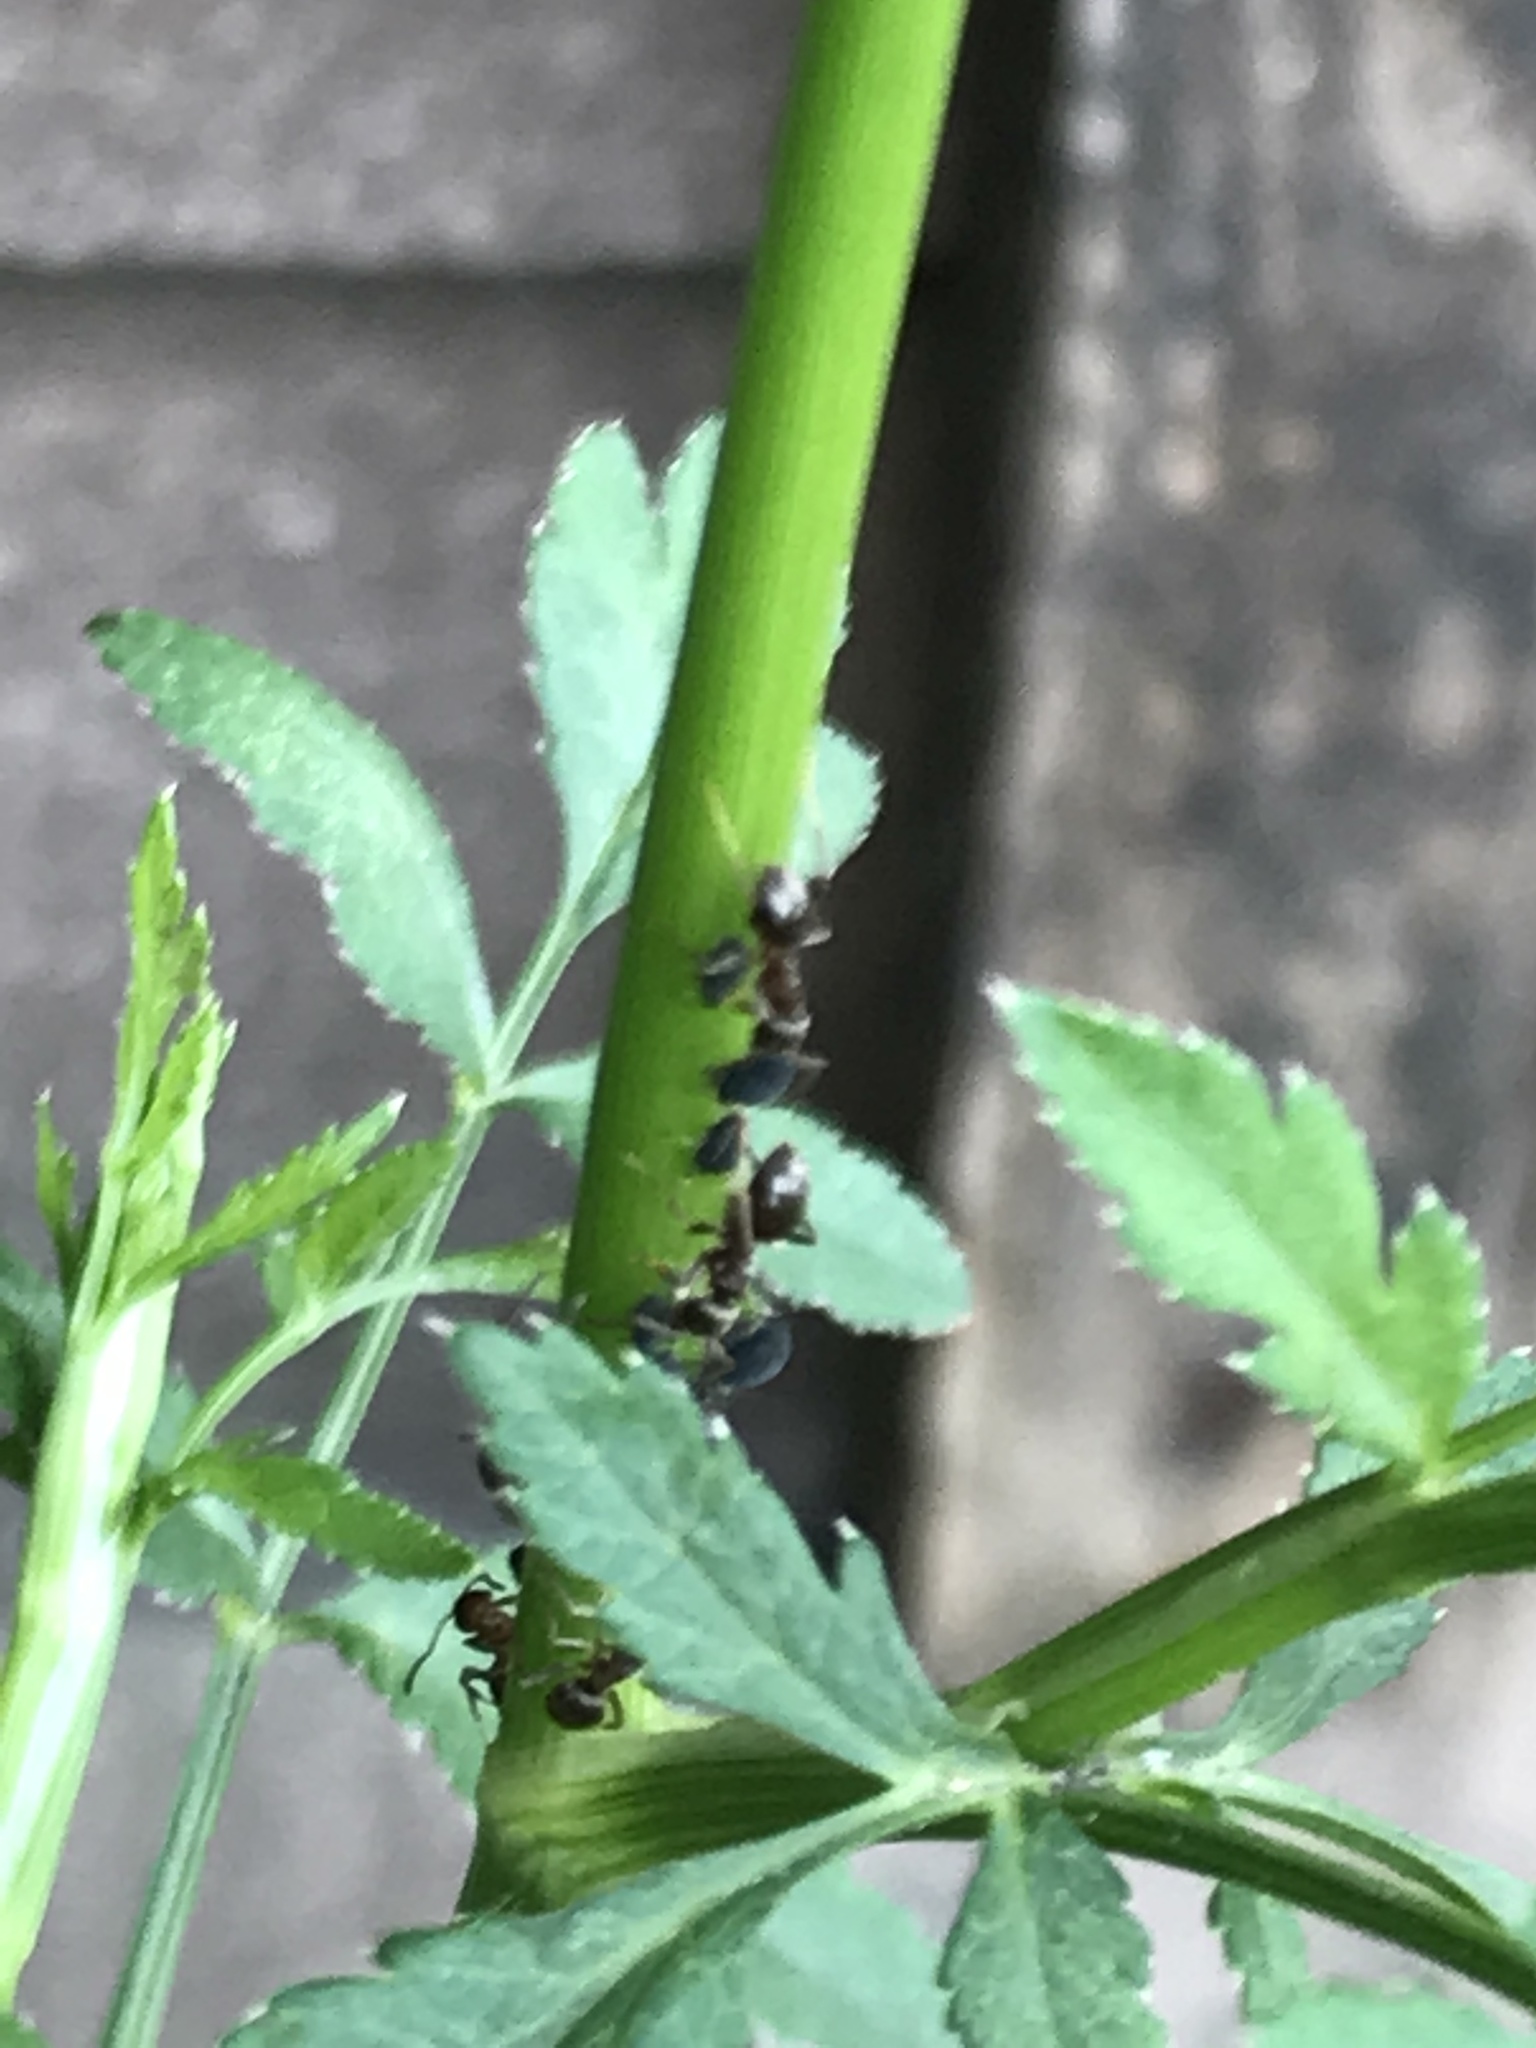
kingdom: Animalia
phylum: Arthropoda
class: Insecta
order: Hymenoptera
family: Formicidae
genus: Lasius
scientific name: Lasius niger
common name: Small black ant
